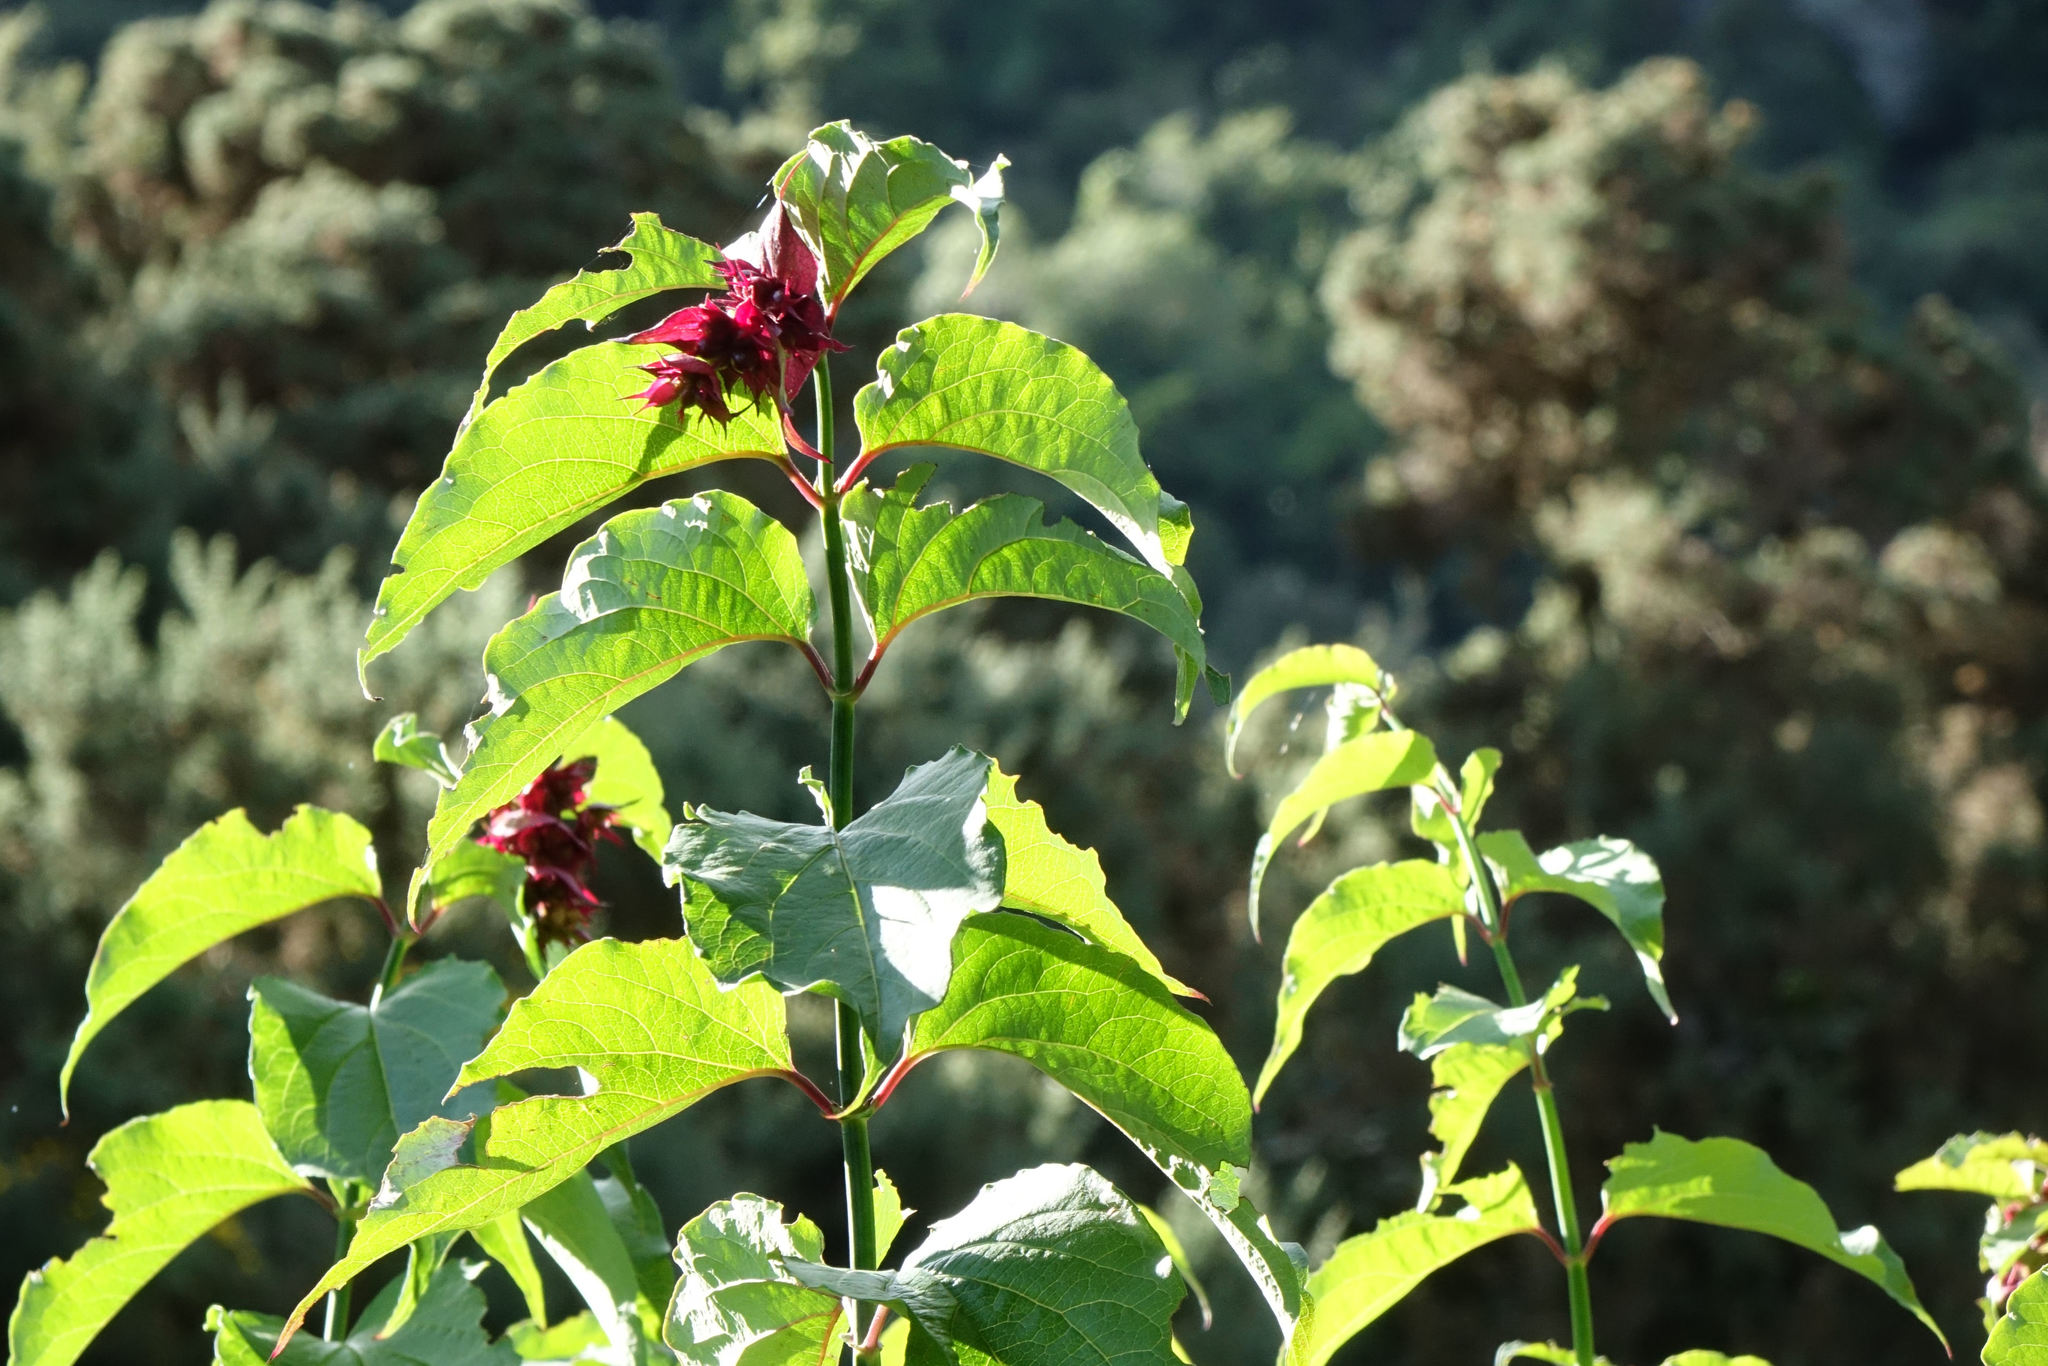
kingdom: Plantae
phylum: Tracheophyta
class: Magnoliopsida
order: Dipsacales
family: Caprifoliaceae
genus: Leycesteria
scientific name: Leycesteria formosa
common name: Himalayan honeysuckle
